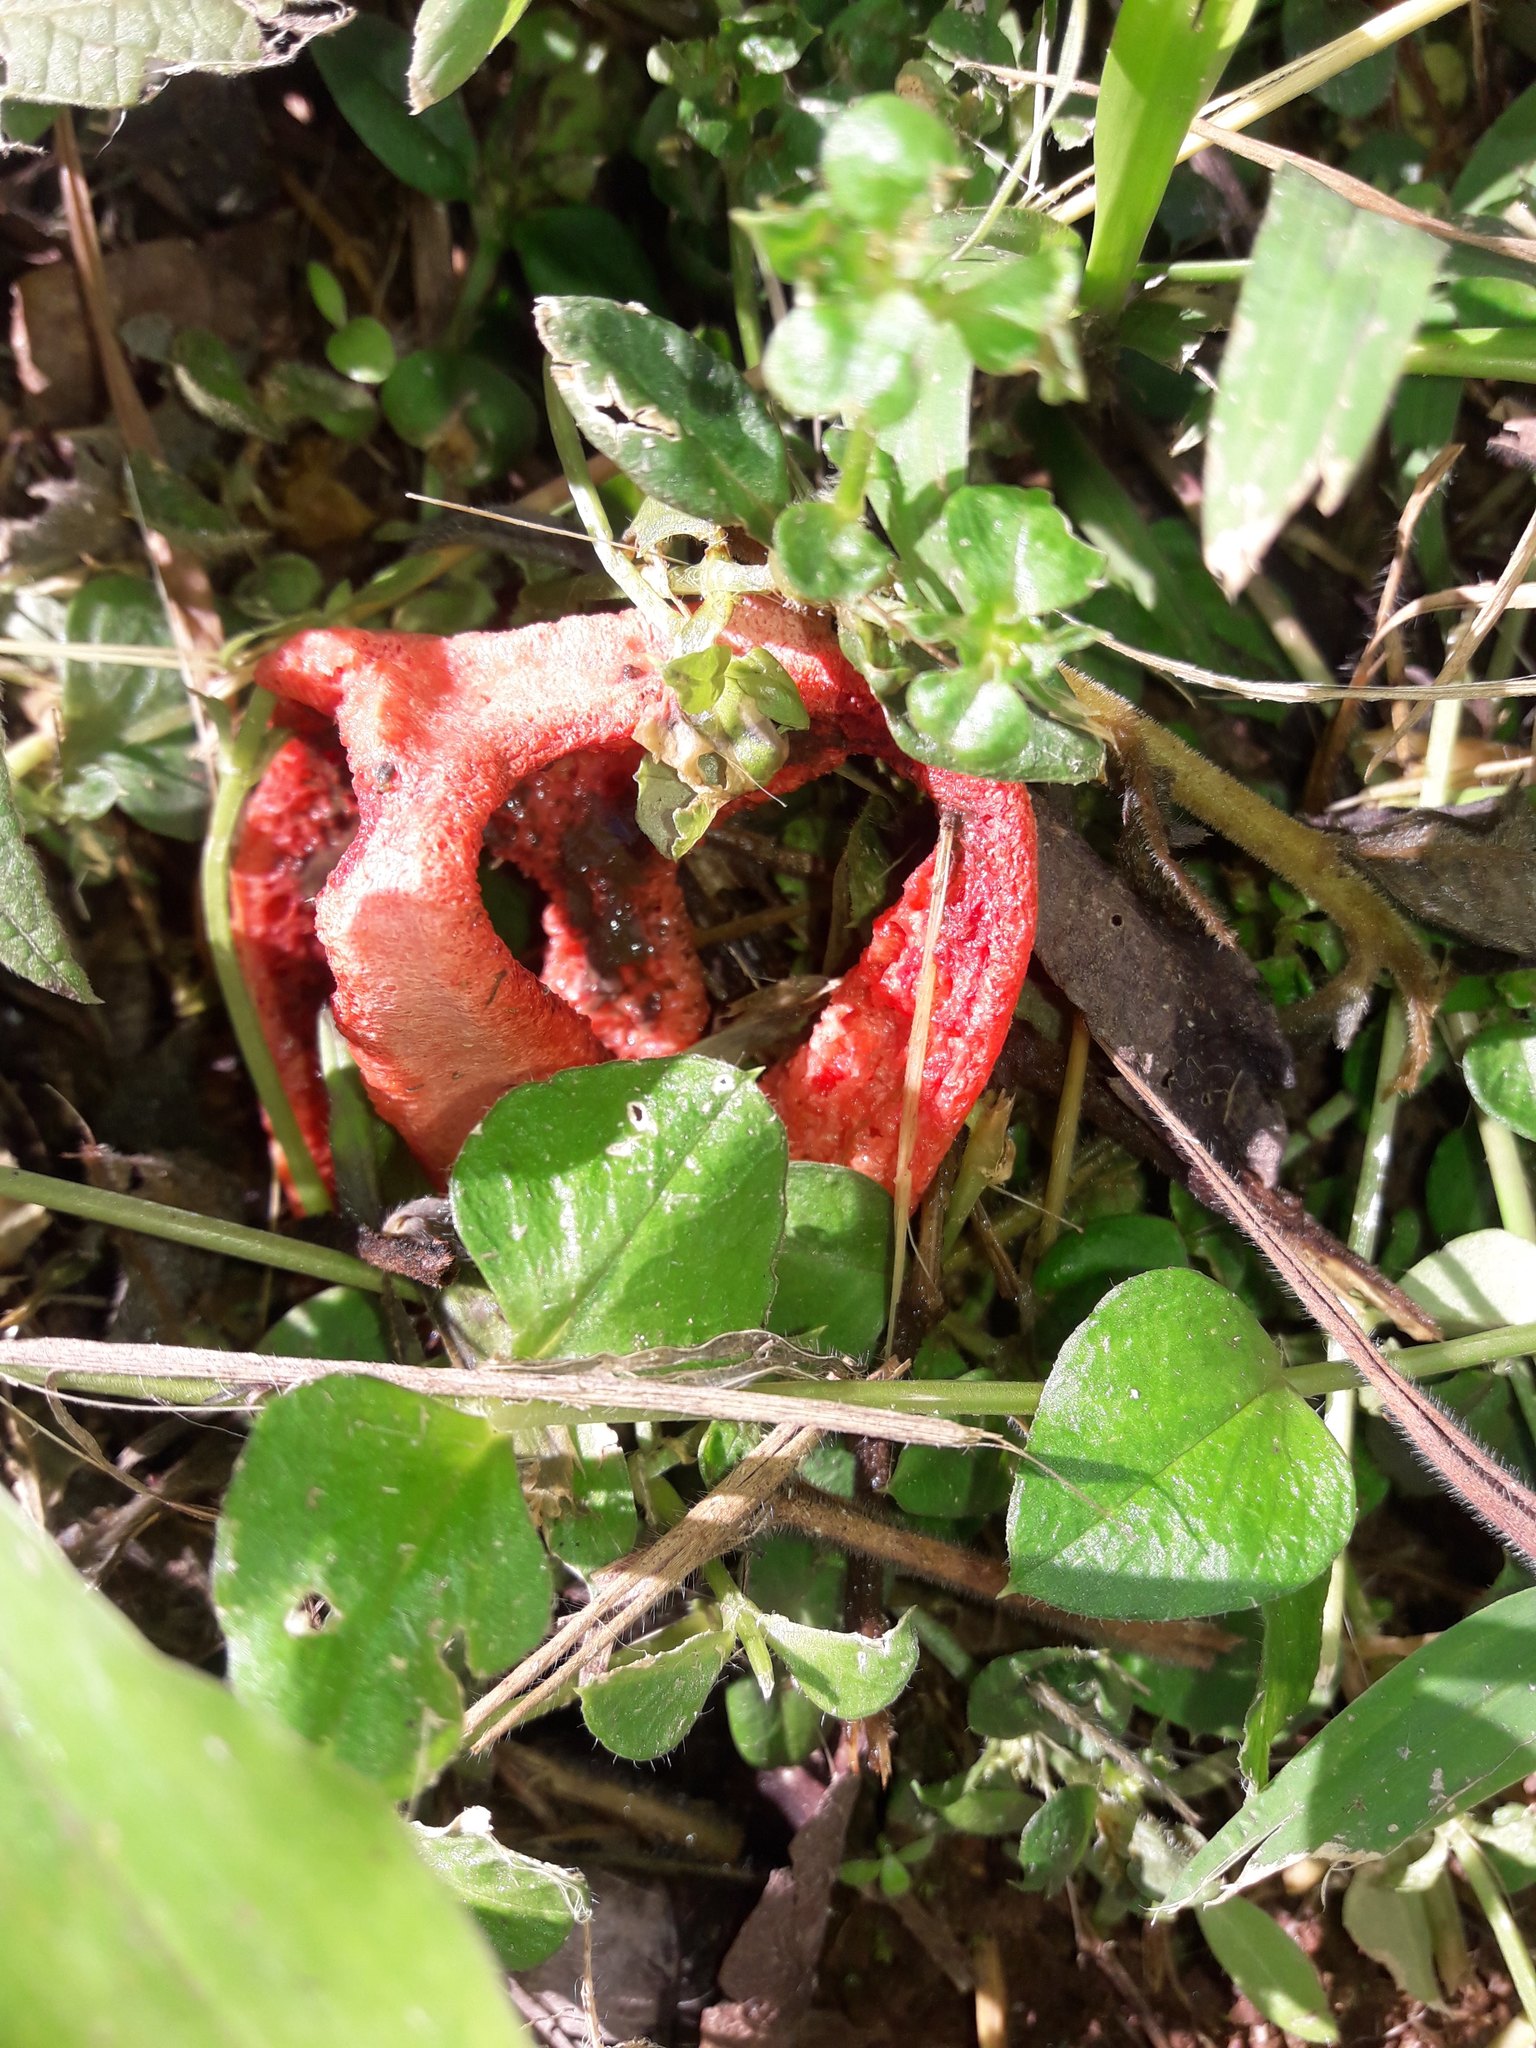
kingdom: Fungi
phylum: Basidiomycota
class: Agaricomycetes
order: Phallales
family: Phallaceae
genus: Clathrus
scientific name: Clathrus columnatus
